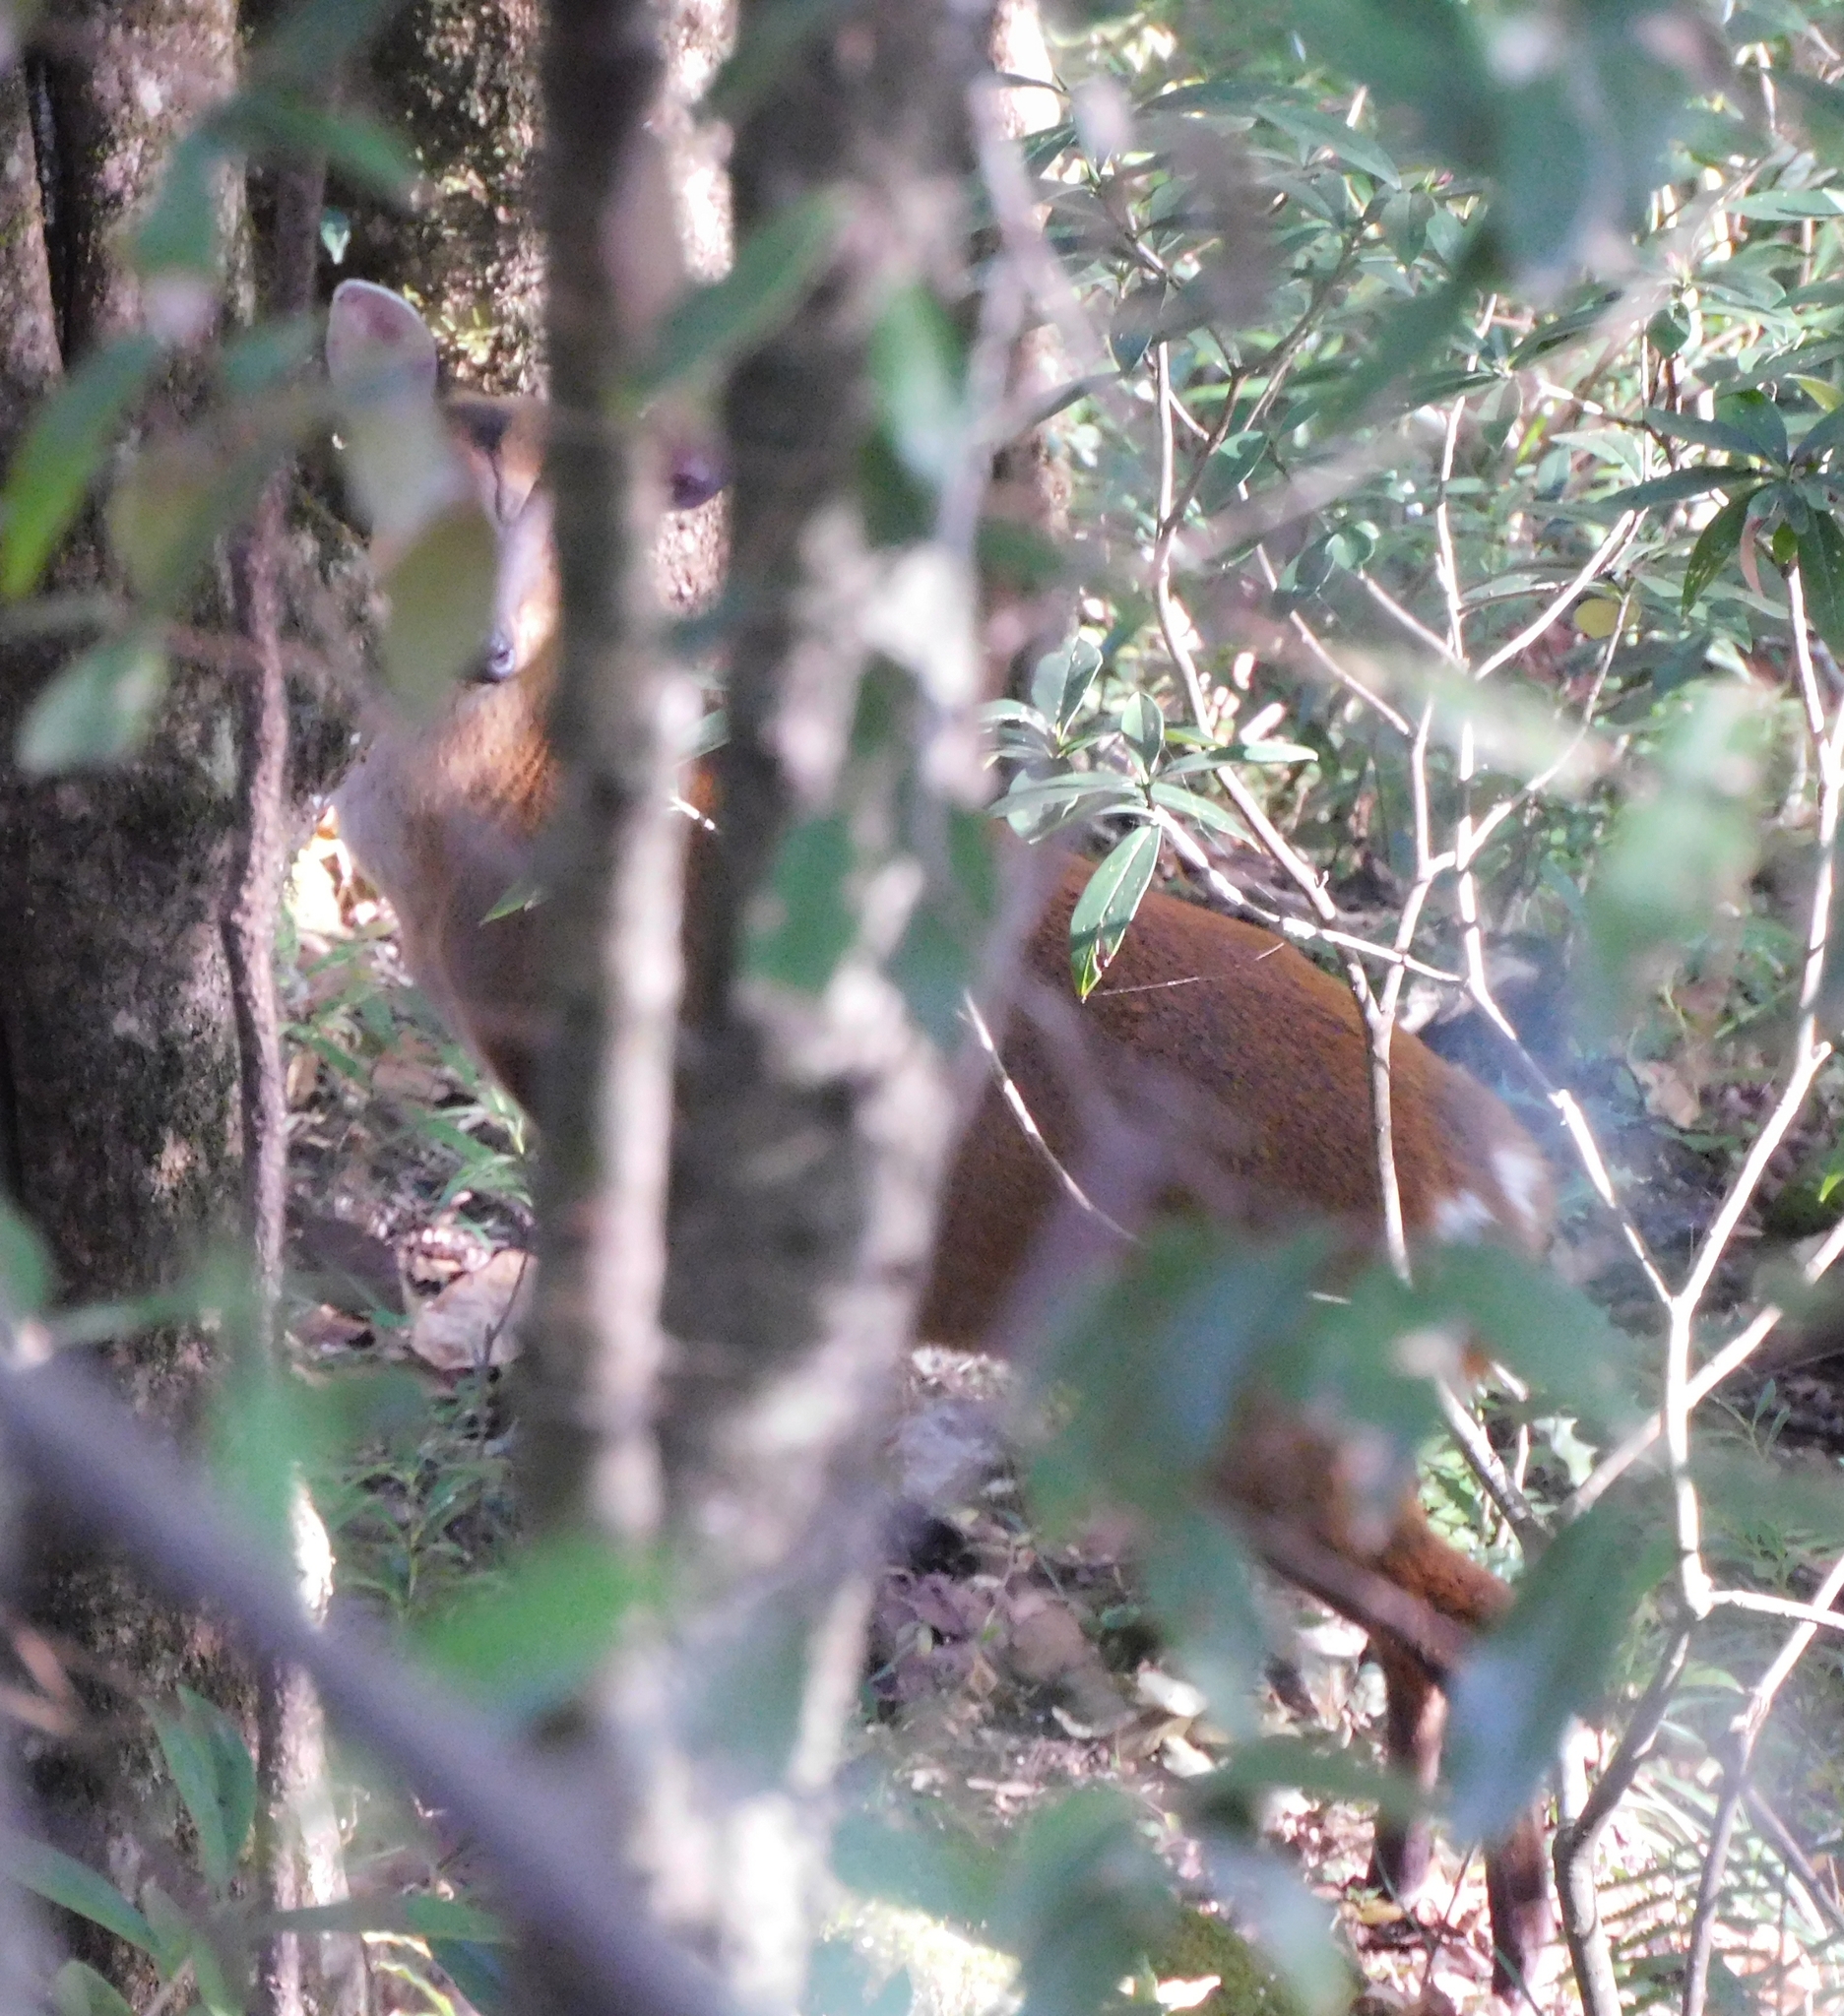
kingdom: Animalia
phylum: Chordata
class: Mammalia
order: Artiodactyla
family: Cervidae
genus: Muntiacus
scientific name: Muntiacus muntjak
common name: Indian muntjac
